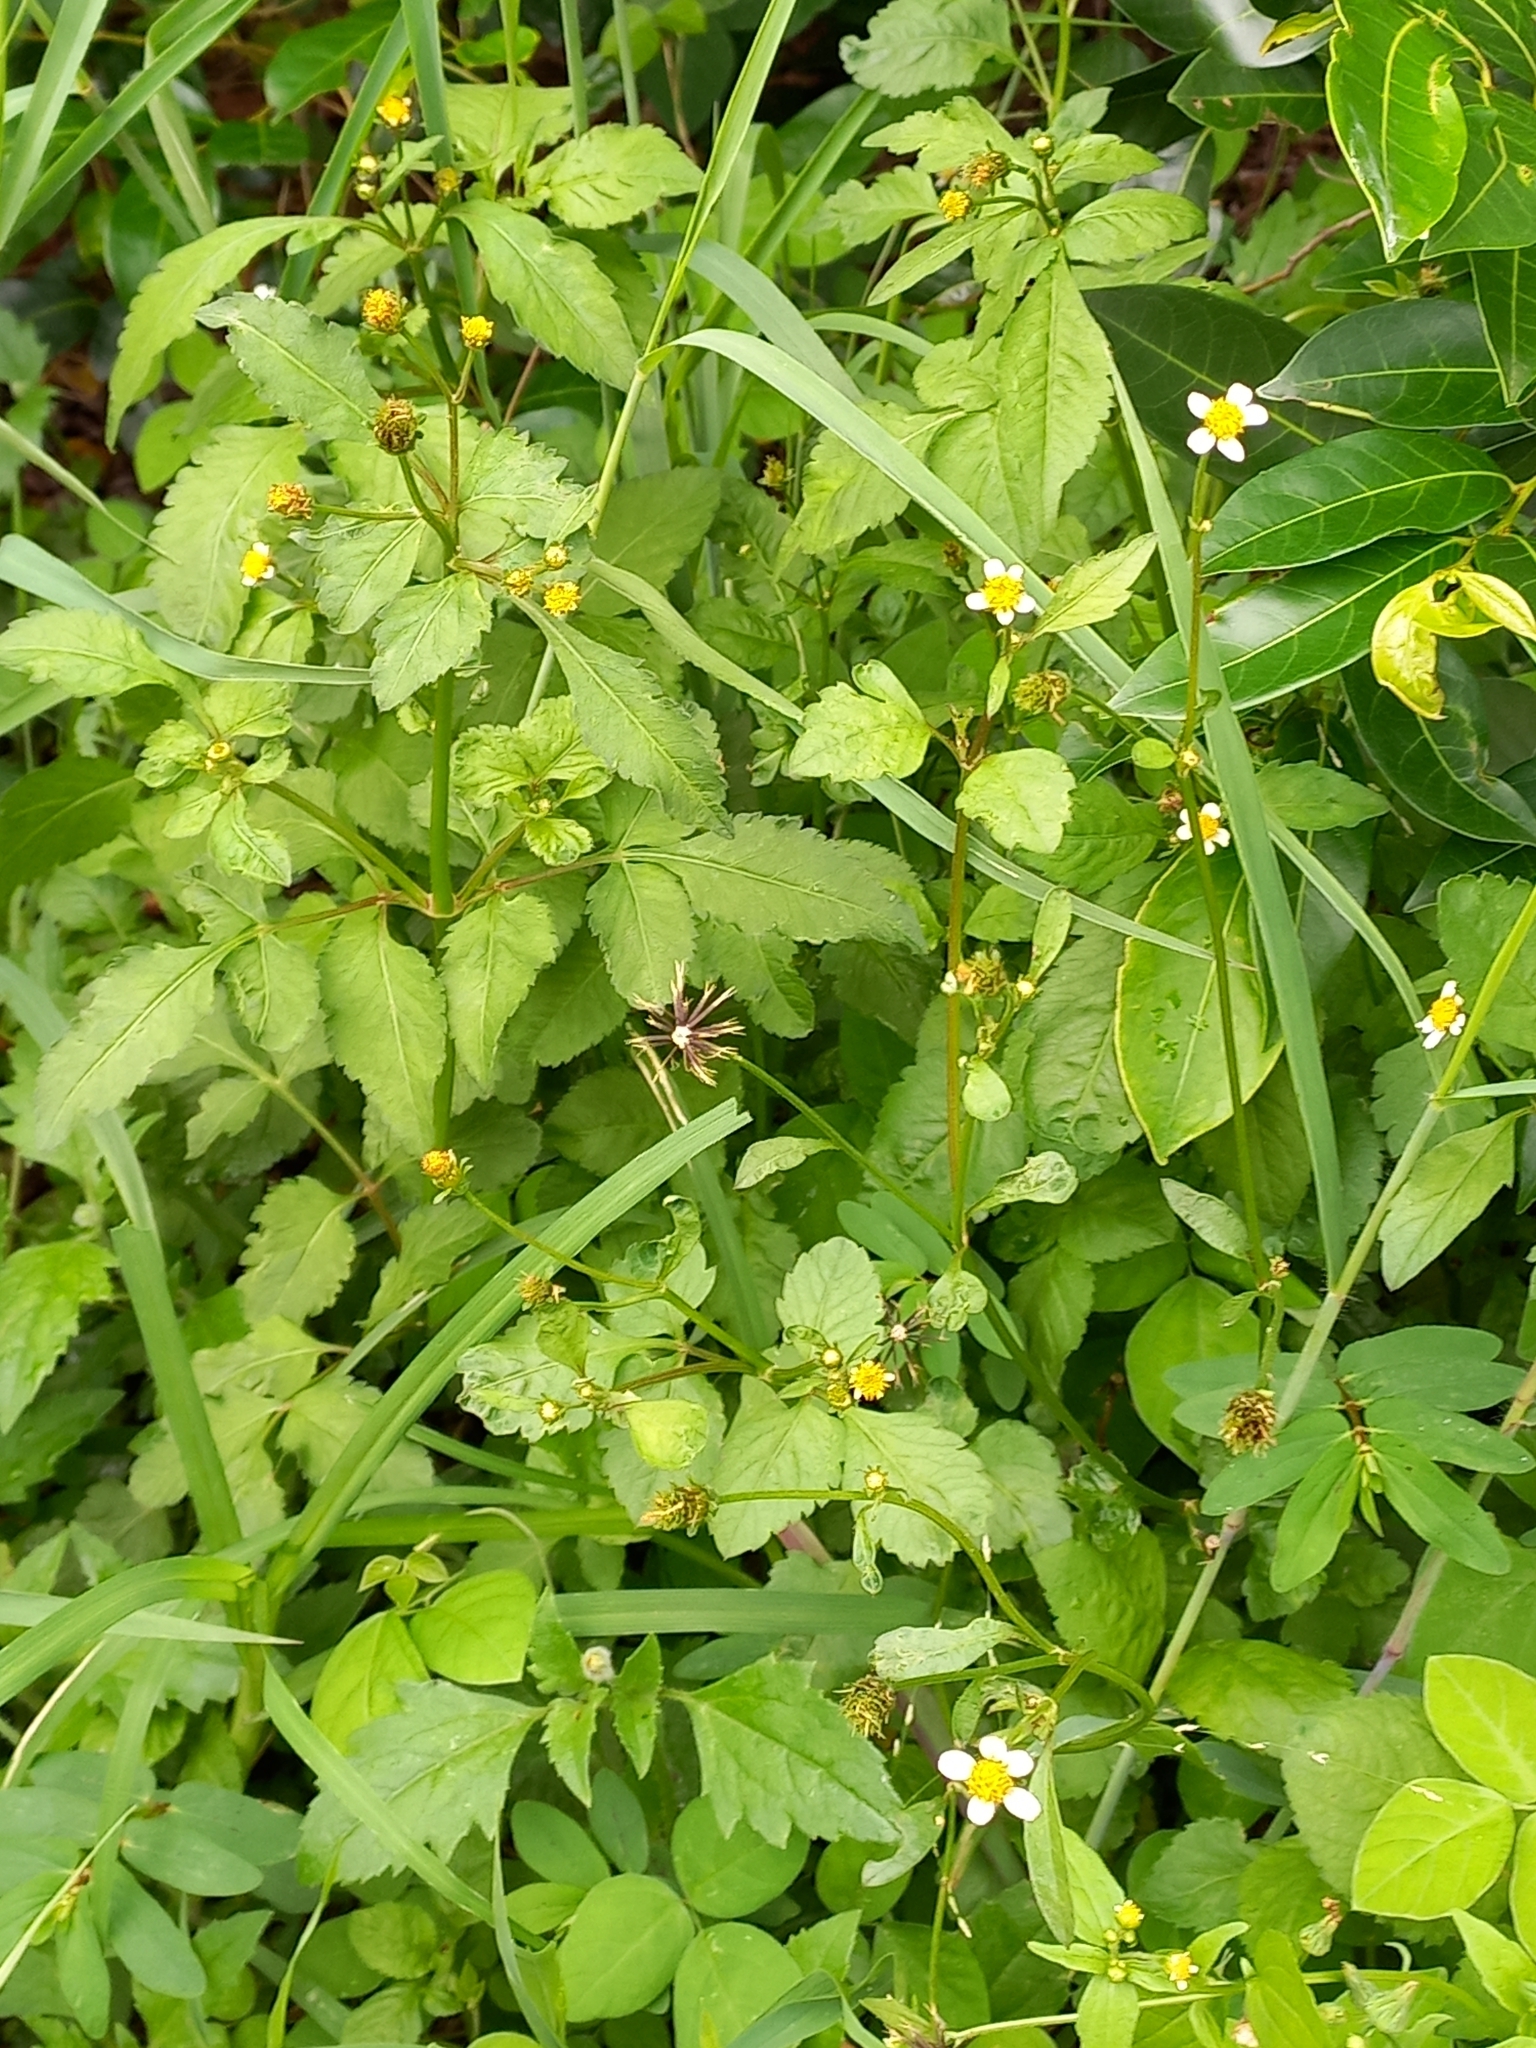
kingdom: Plantae
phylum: Tracheophyta
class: Magnoliopsida
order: Asterales
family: Asteraceae
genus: Bidens
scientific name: Bidens pilosa
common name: Black-jack
